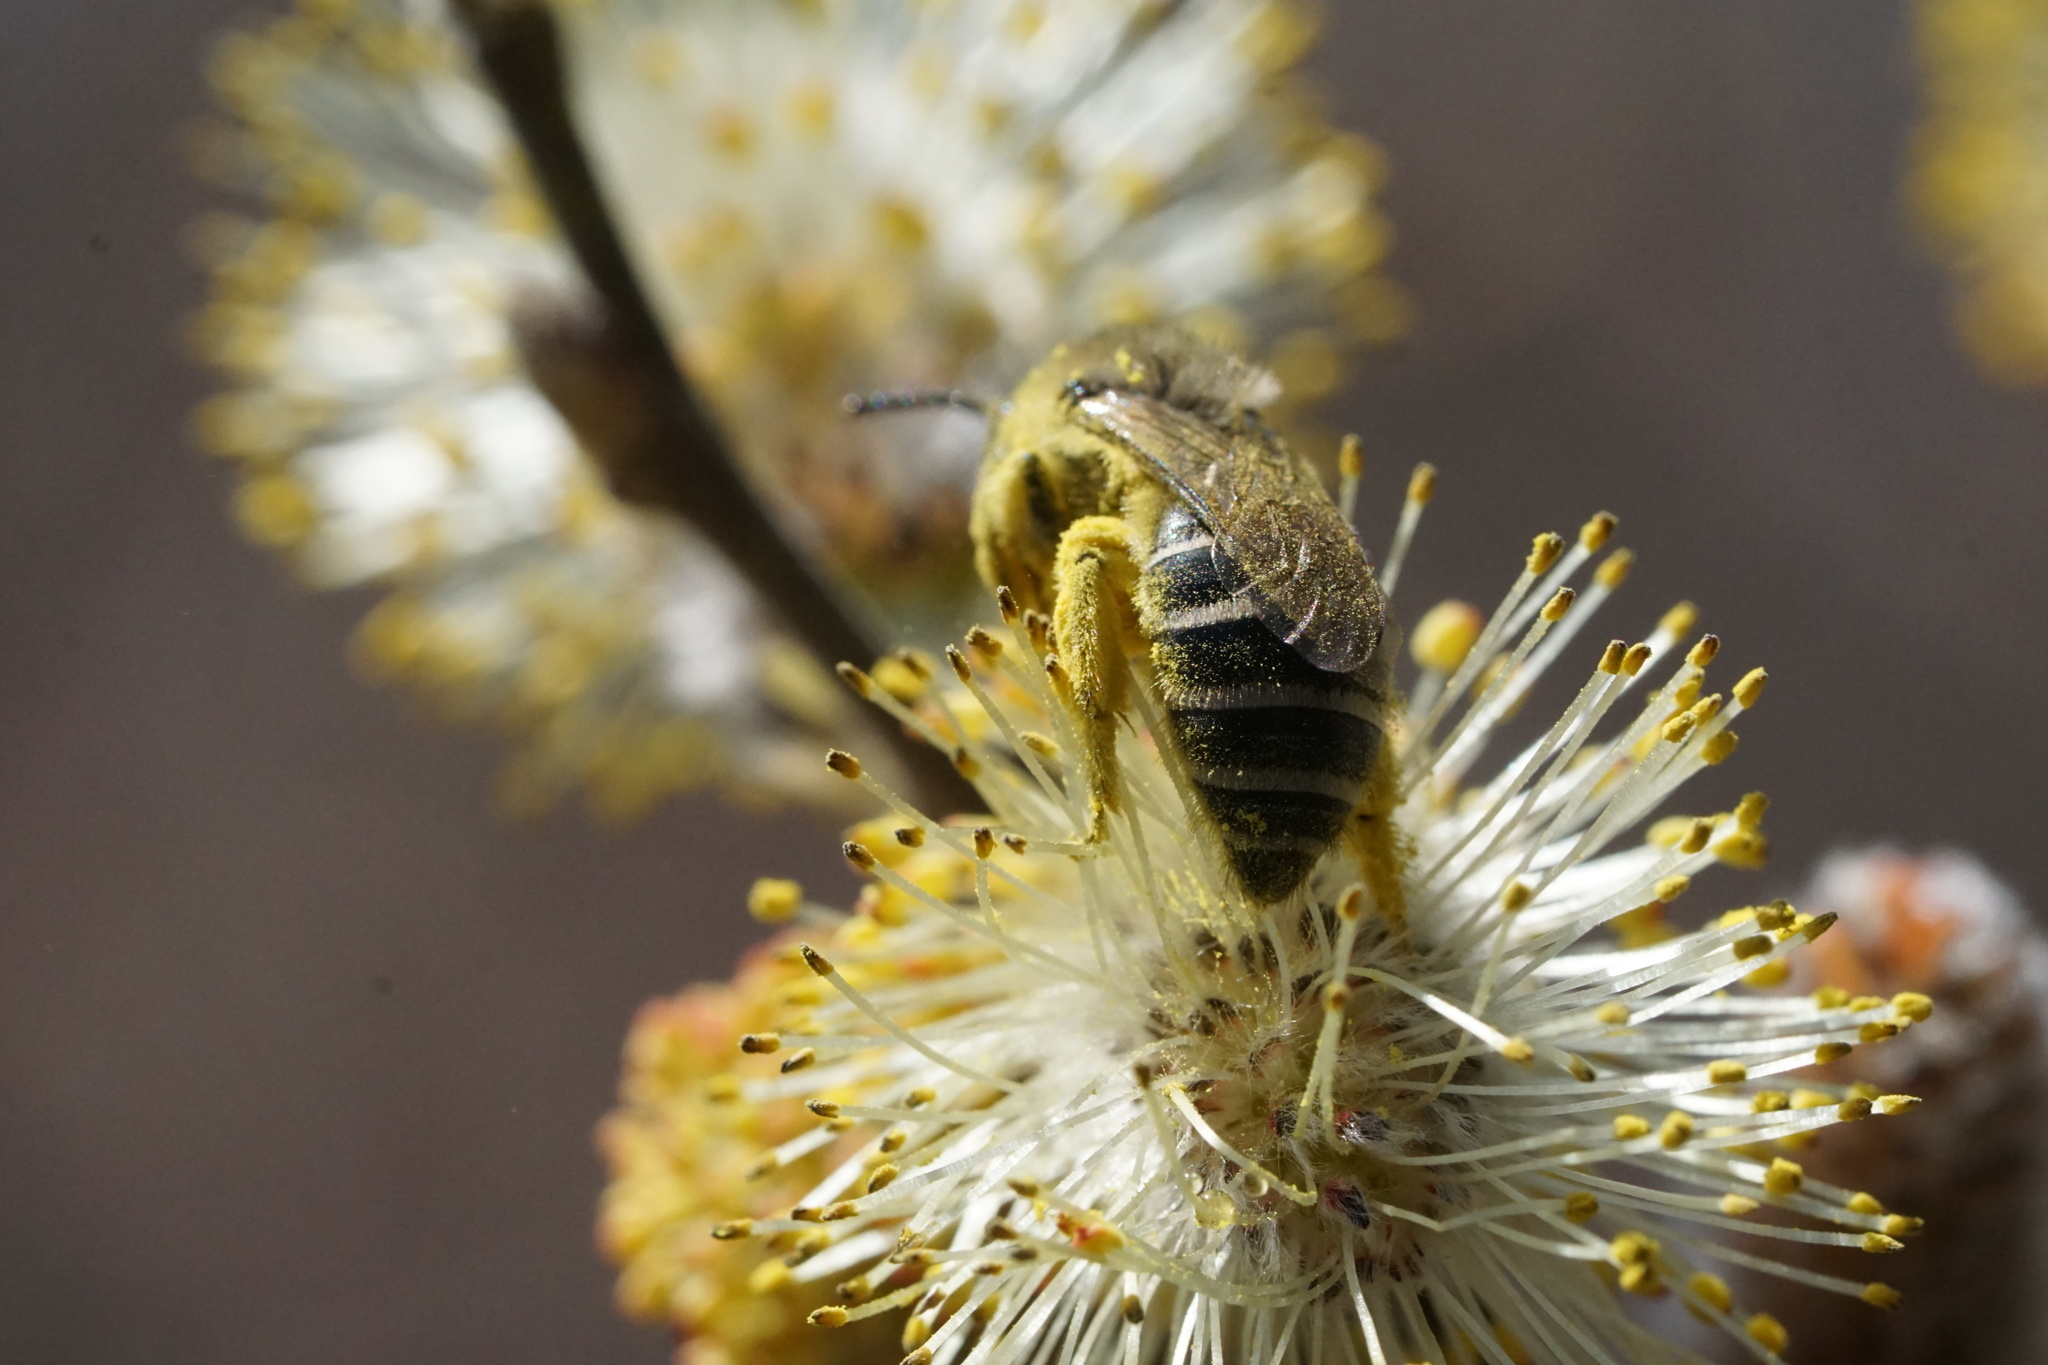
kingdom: Animalia
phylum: Arthropoda
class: Insecta
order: Hymenoptera
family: Colletidae
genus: Colletes
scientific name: Colletes inaequalis
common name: Unequal cellophane bee
